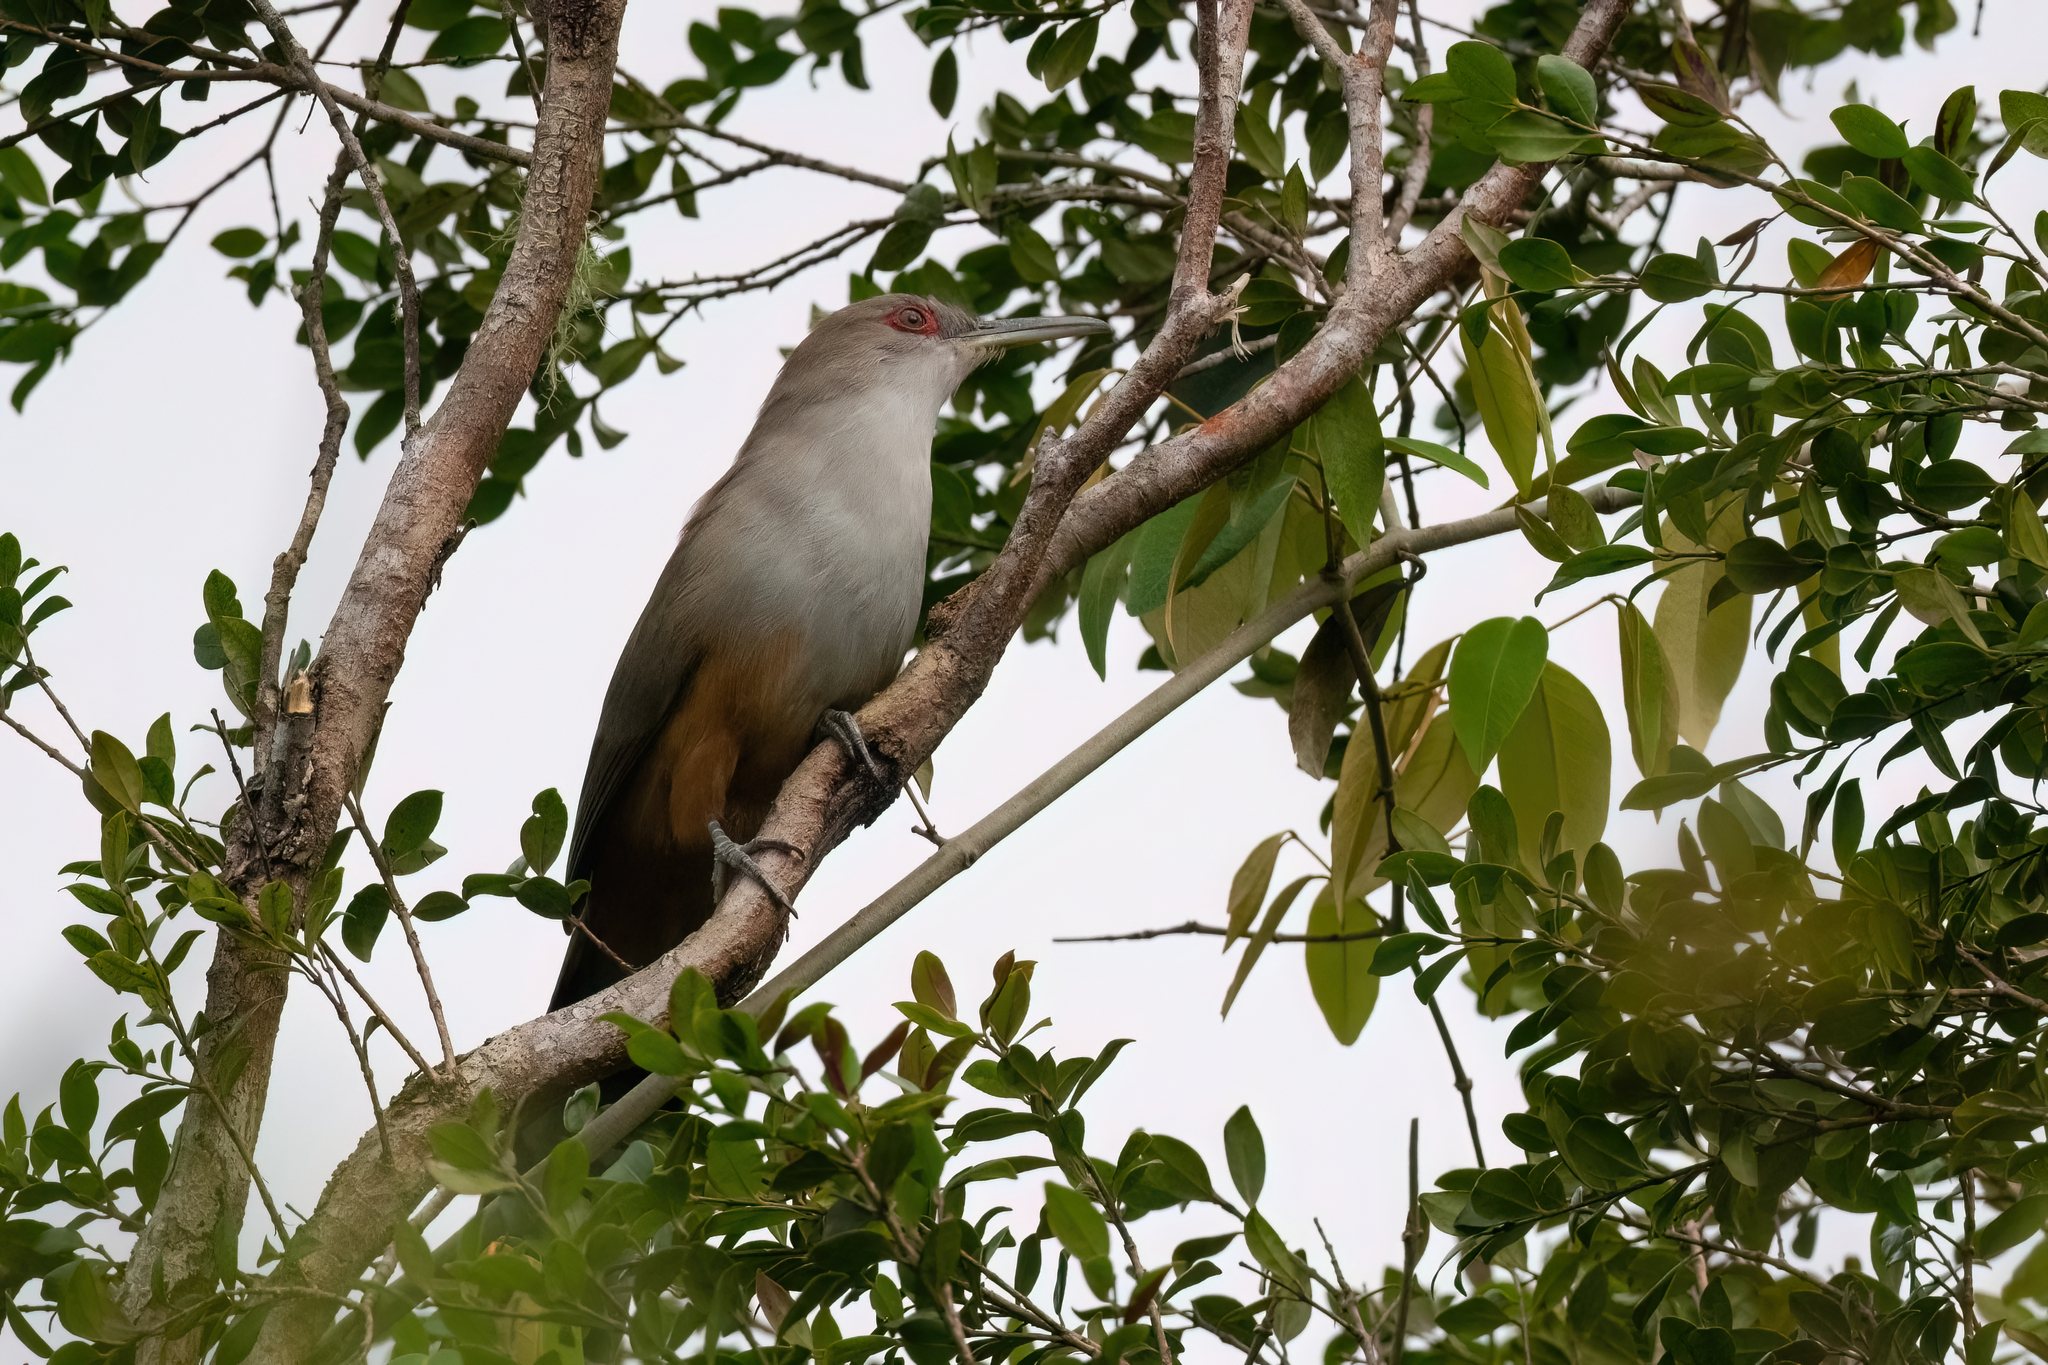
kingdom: Animalia
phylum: Chordata
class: Aves
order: Cuculiformes
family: Cuculidae
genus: Saurothera
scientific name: Saurothera vieilloti
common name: Puerto rican lizard-cuckoo
